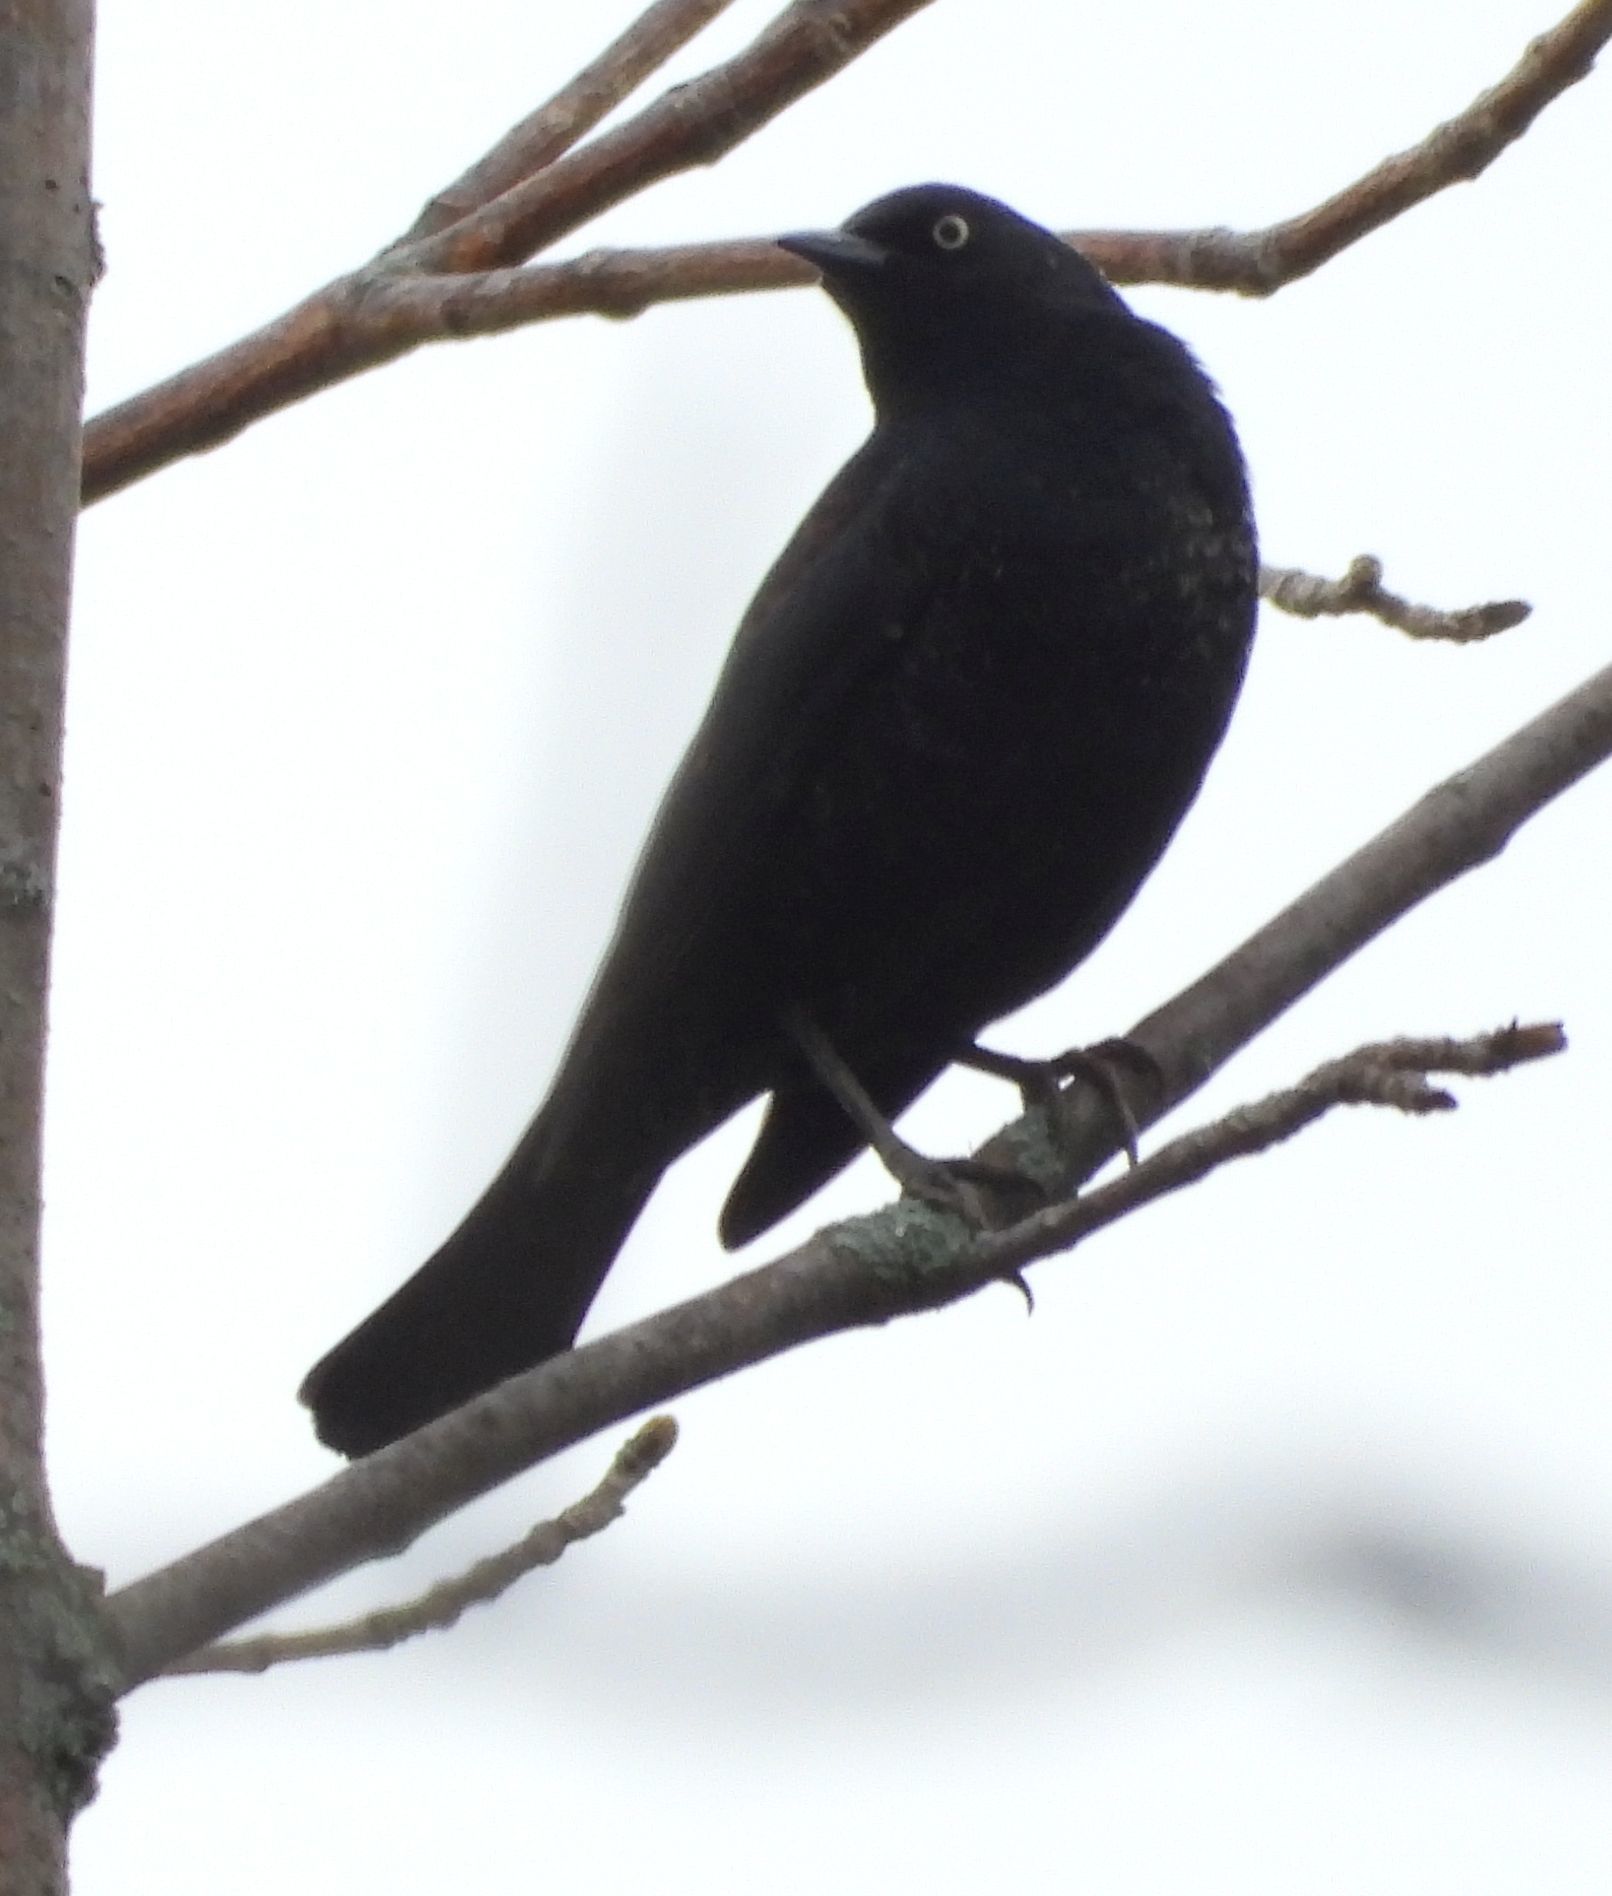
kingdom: Animalia
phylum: Chordata
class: Aves
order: Passeriformes
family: Icteridae
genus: Euphagus
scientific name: Euphagus carolinus
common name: Rusty blackbird
